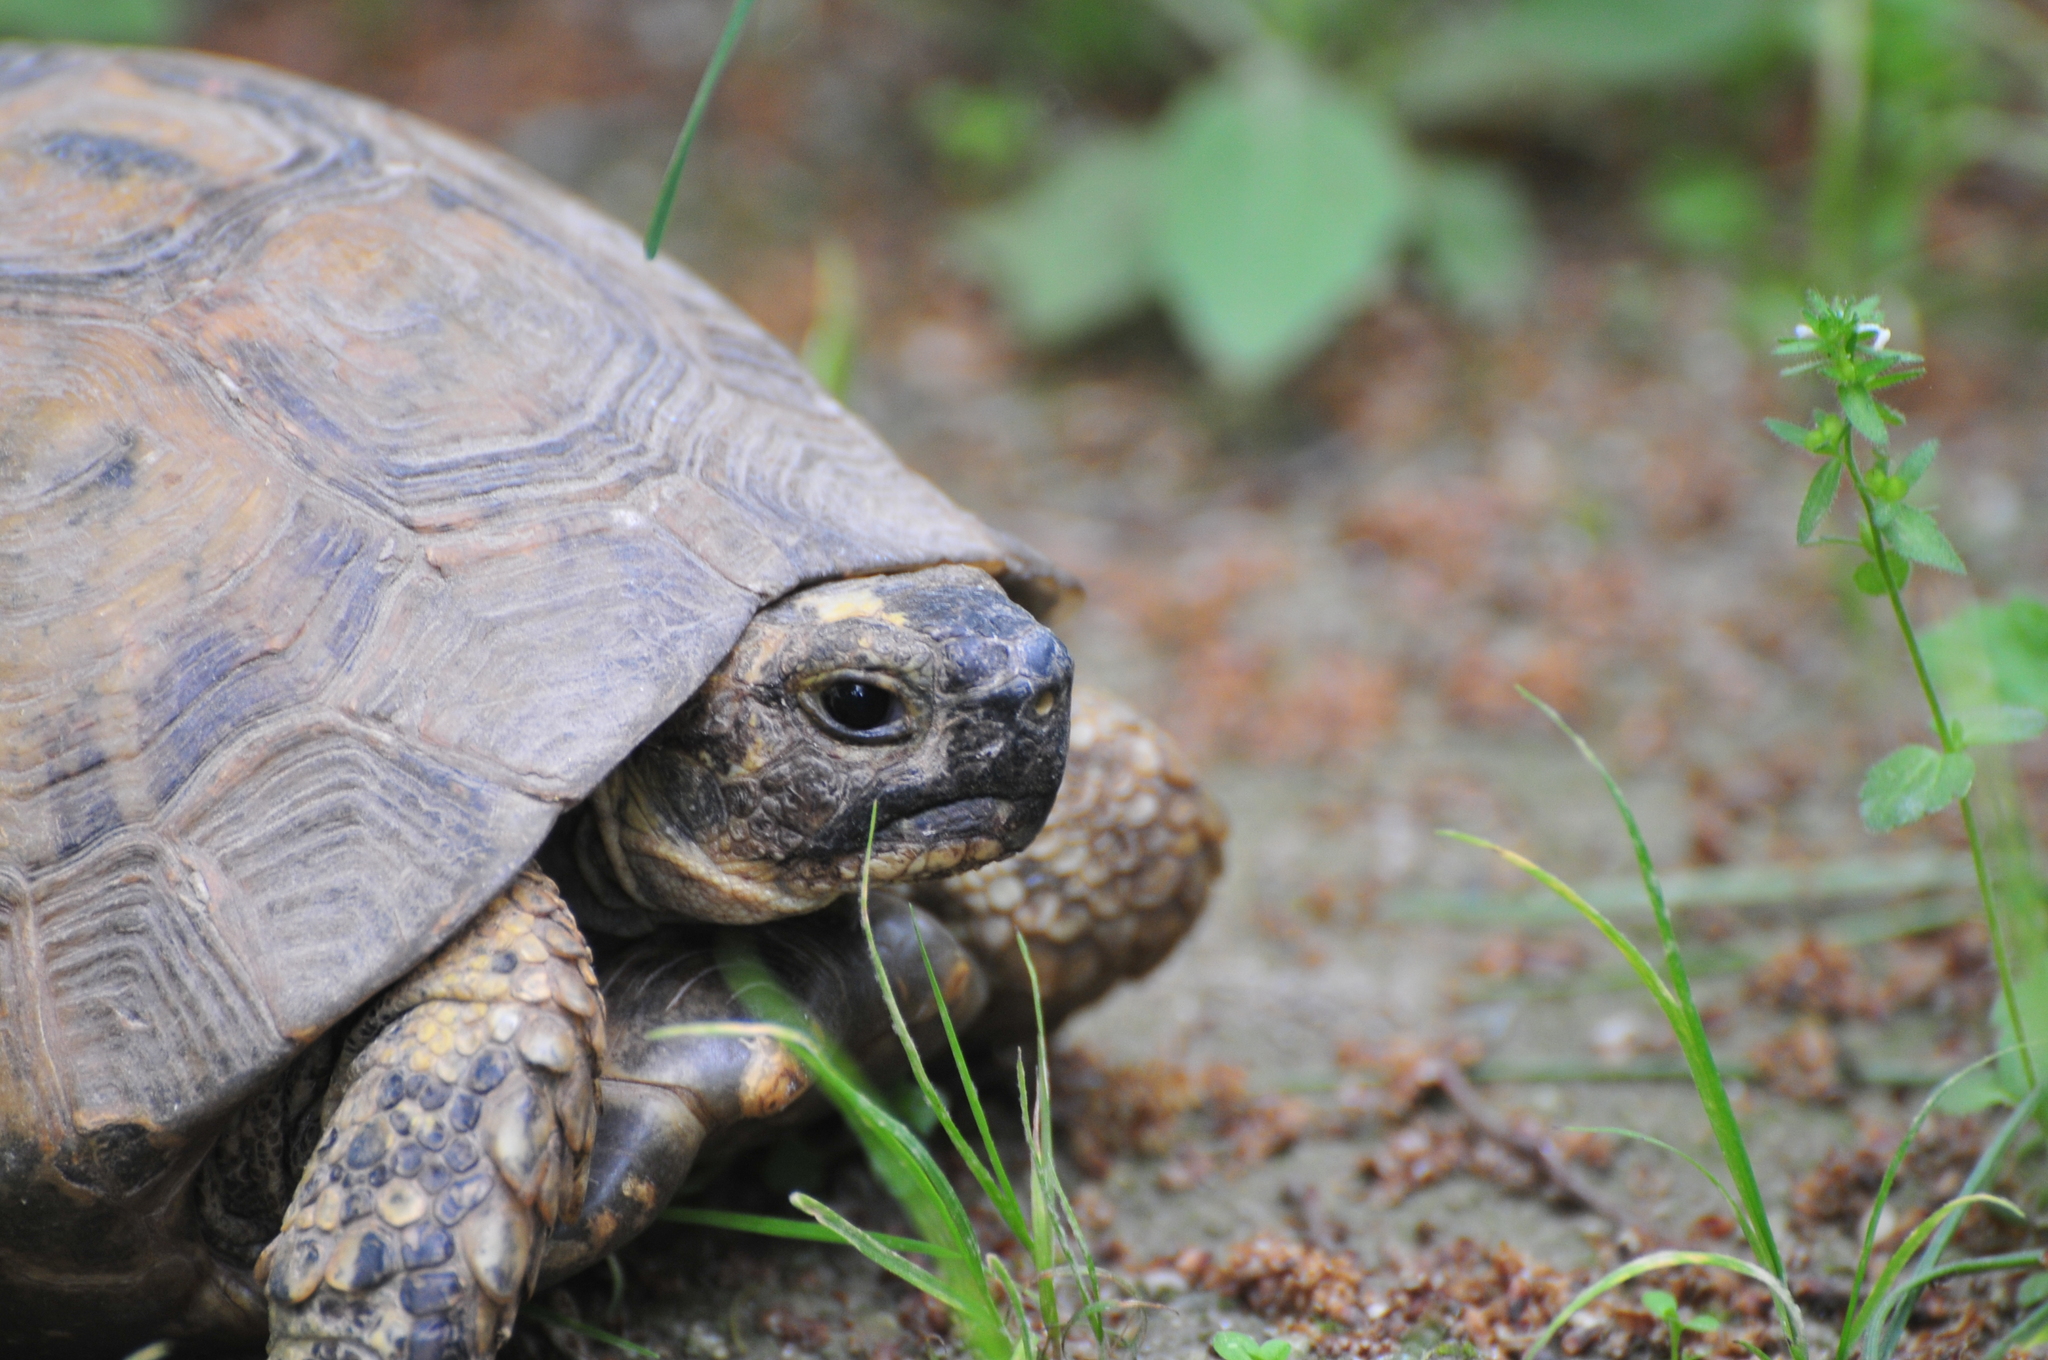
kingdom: Animalia
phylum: Chordata
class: Testudines
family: Testudinidae
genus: Testudo
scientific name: Testudo graeca
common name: Common tortoise
